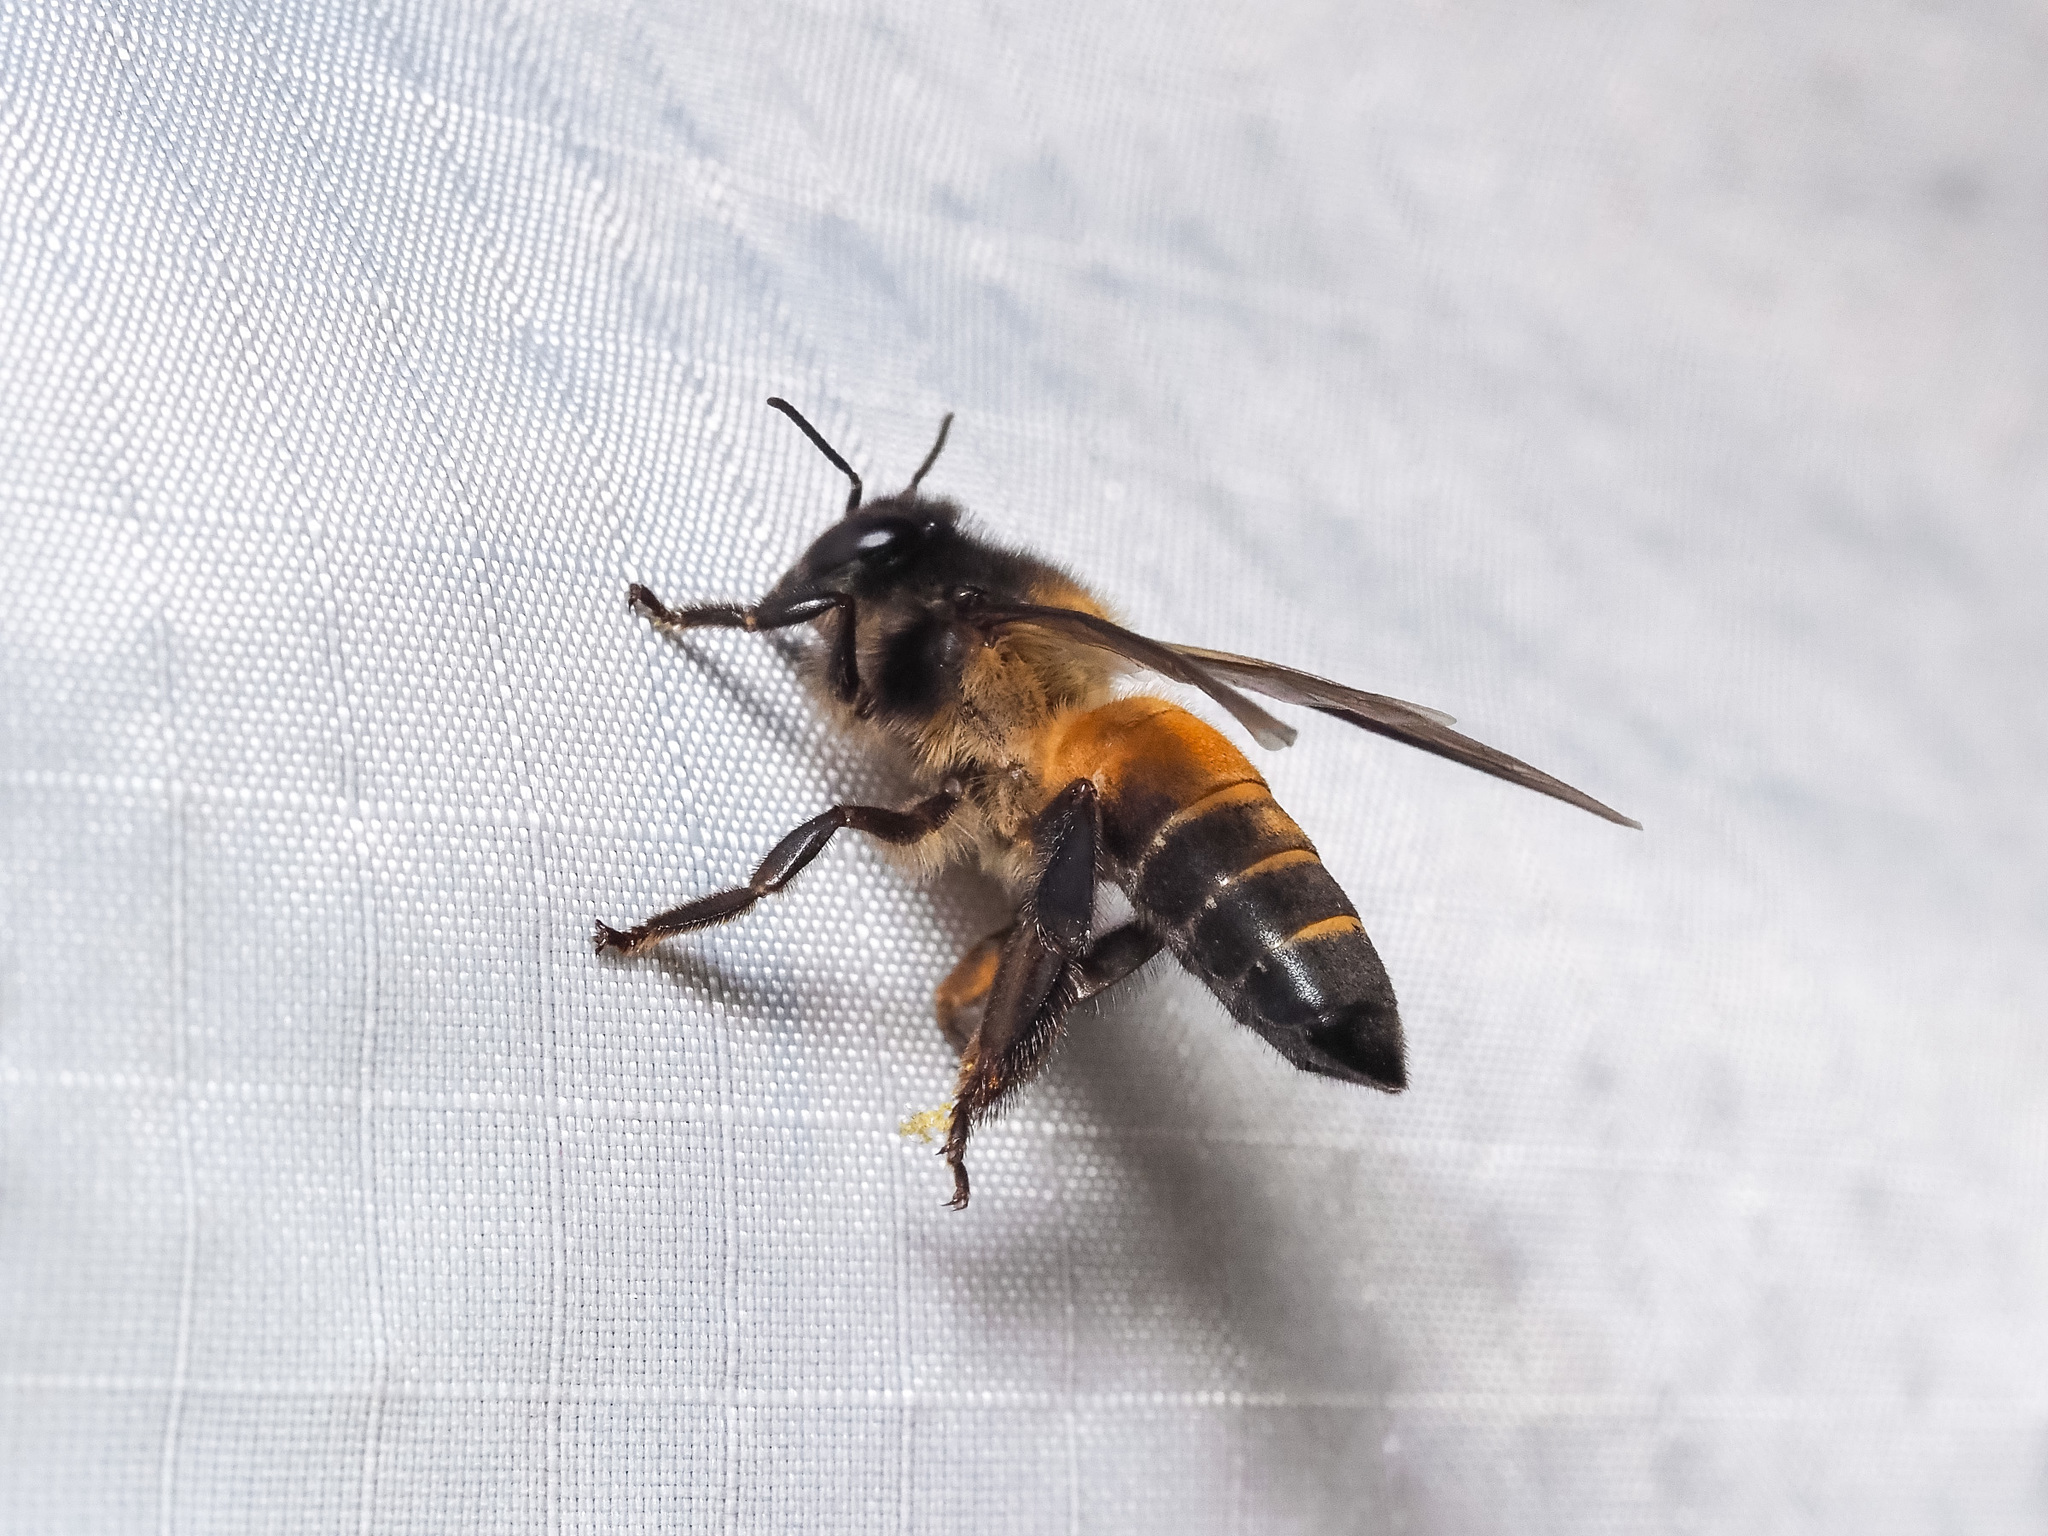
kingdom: Animalia
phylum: Arthropoda
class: Insecta
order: Hymenoptera
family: Apidae
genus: Apis
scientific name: Apis dorsata
